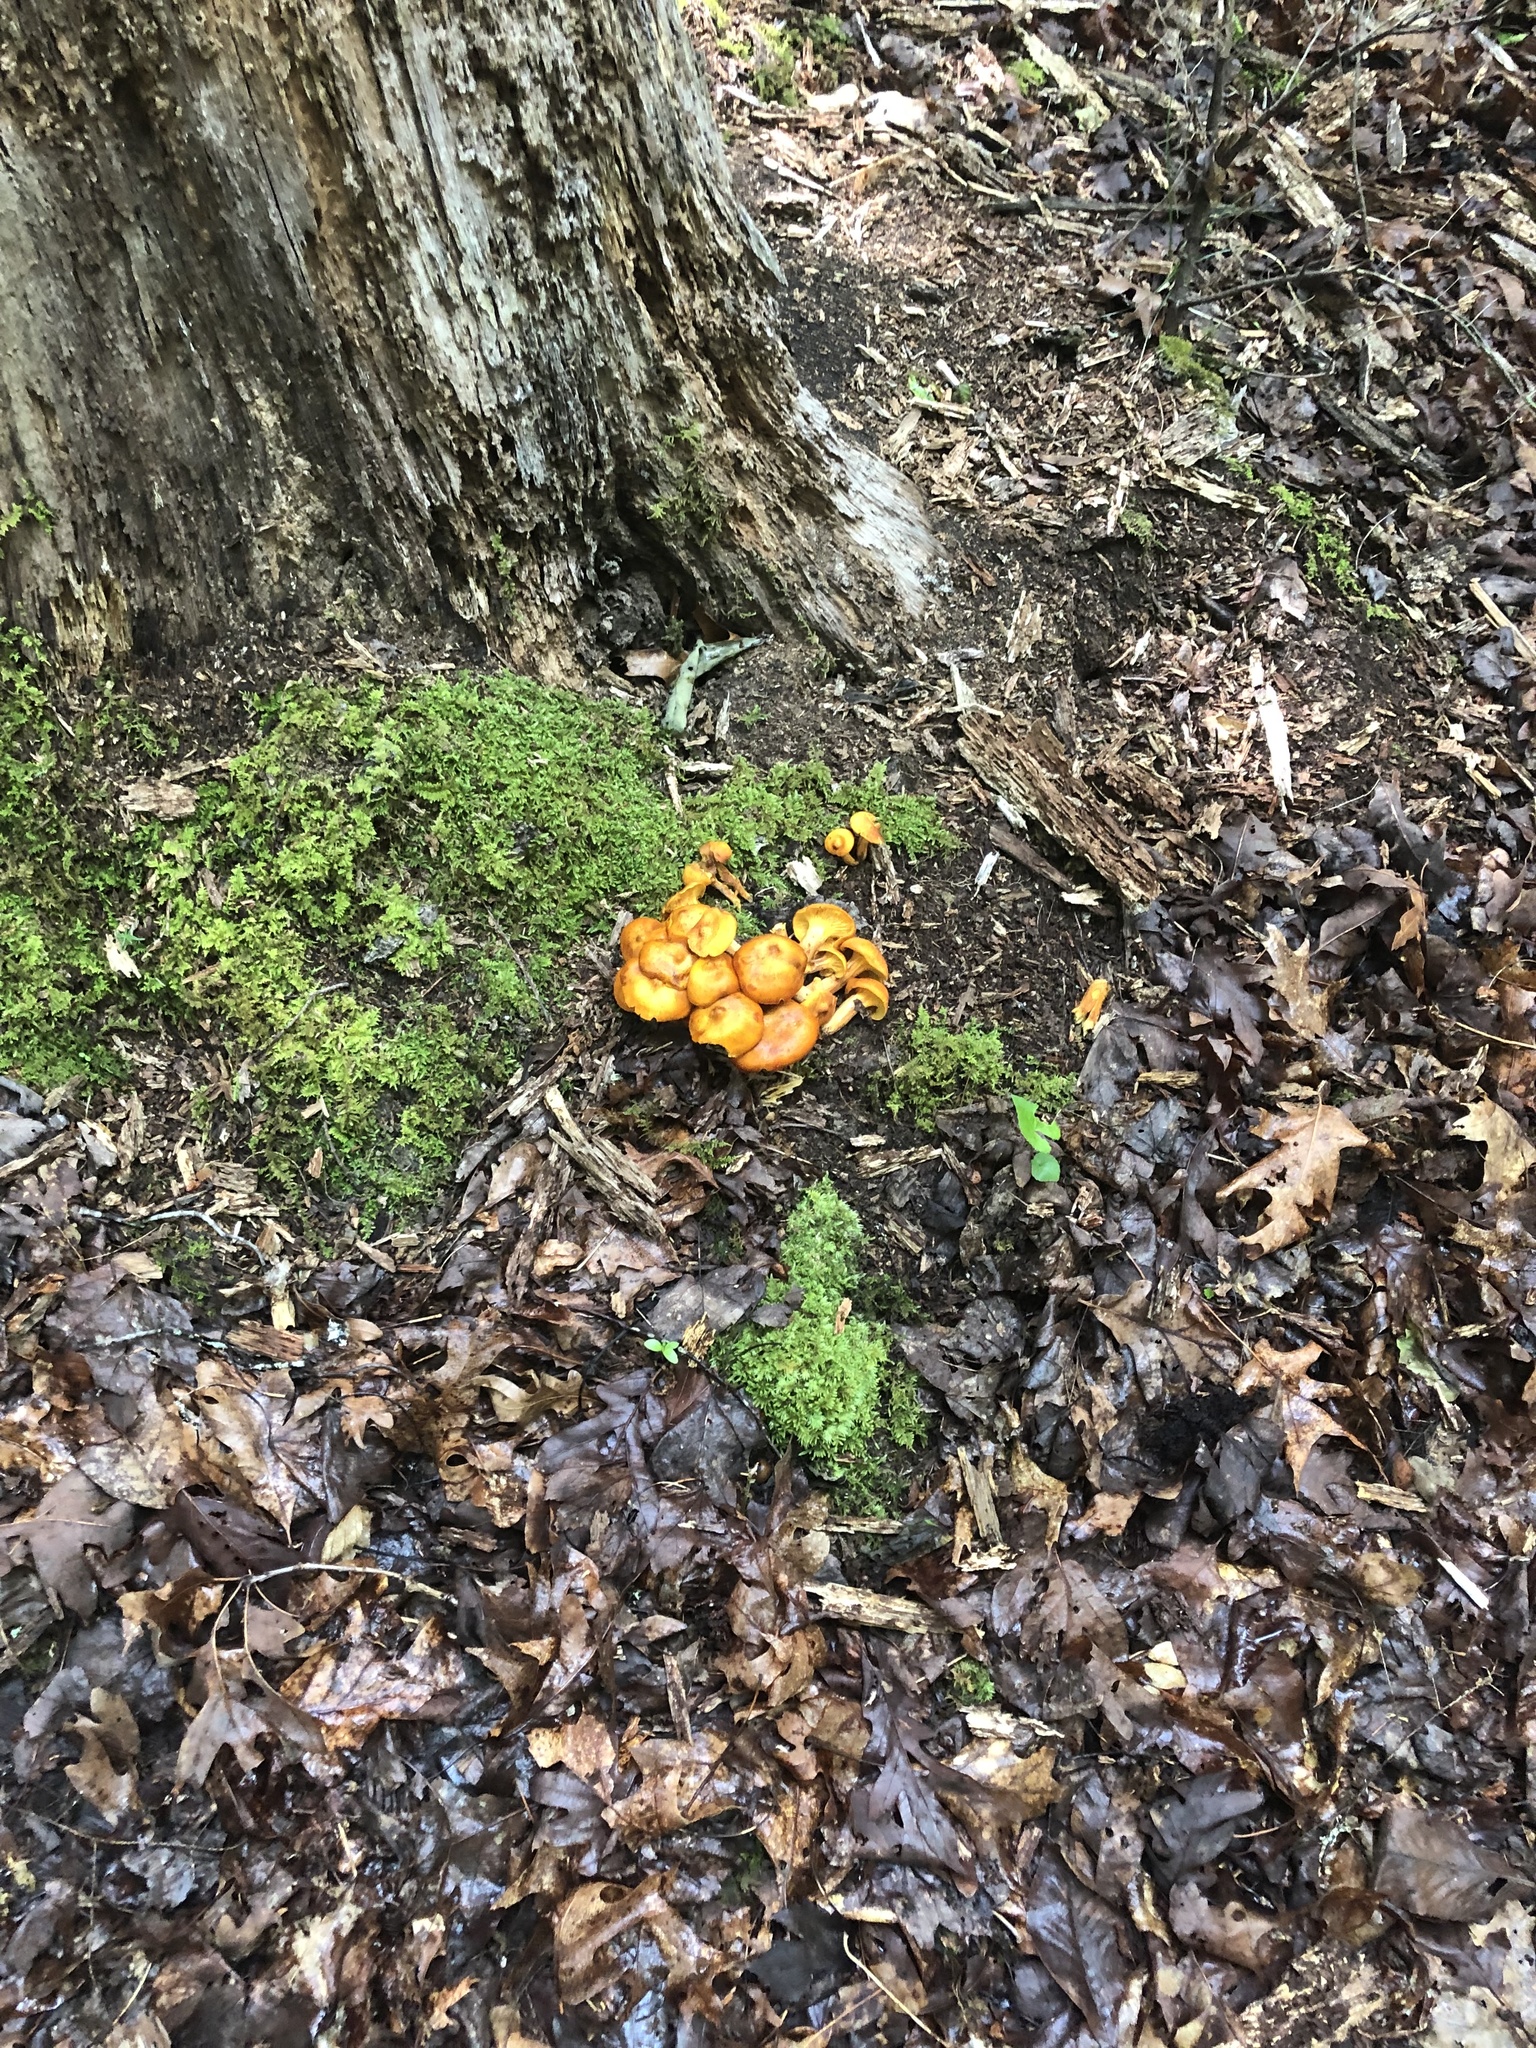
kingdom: Fungi
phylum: Basidiomycota
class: Agaricomycetes
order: Agaricales
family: Omphalotaceae
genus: Omphalotus
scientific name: Omphalotus illudens
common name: Jack o lantern
